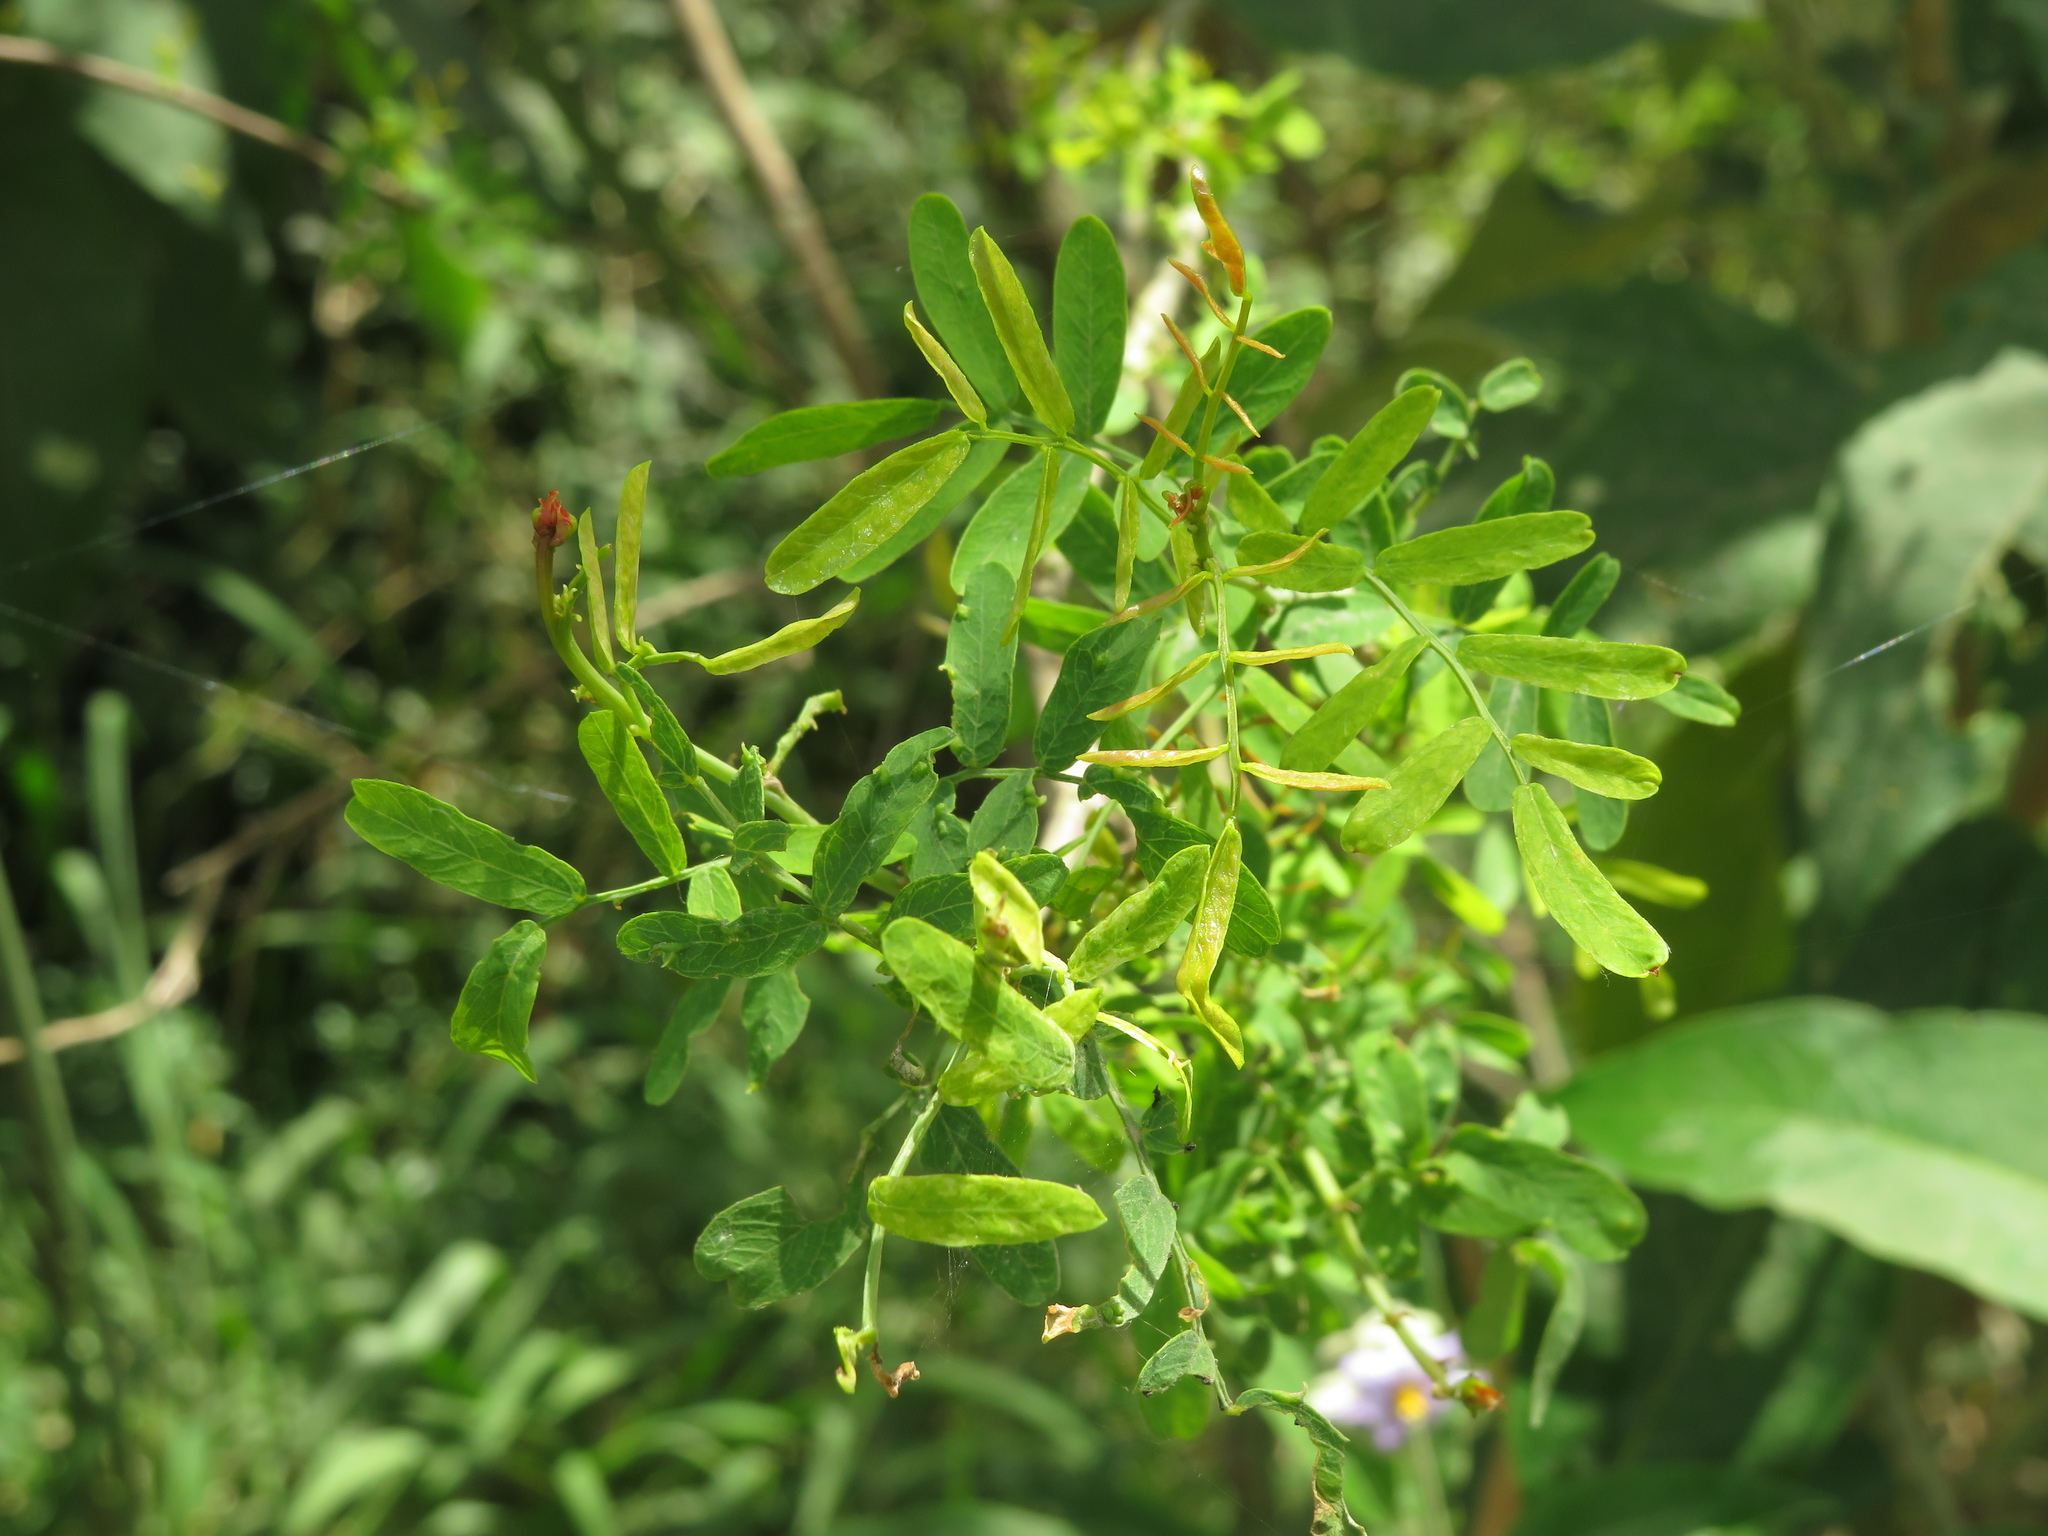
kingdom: Plantae
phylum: Tracheophyta
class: Magnoliopsida
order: Fabales
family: Fabaceae
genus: Geoffroea
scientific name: Geoffroea decorticans
